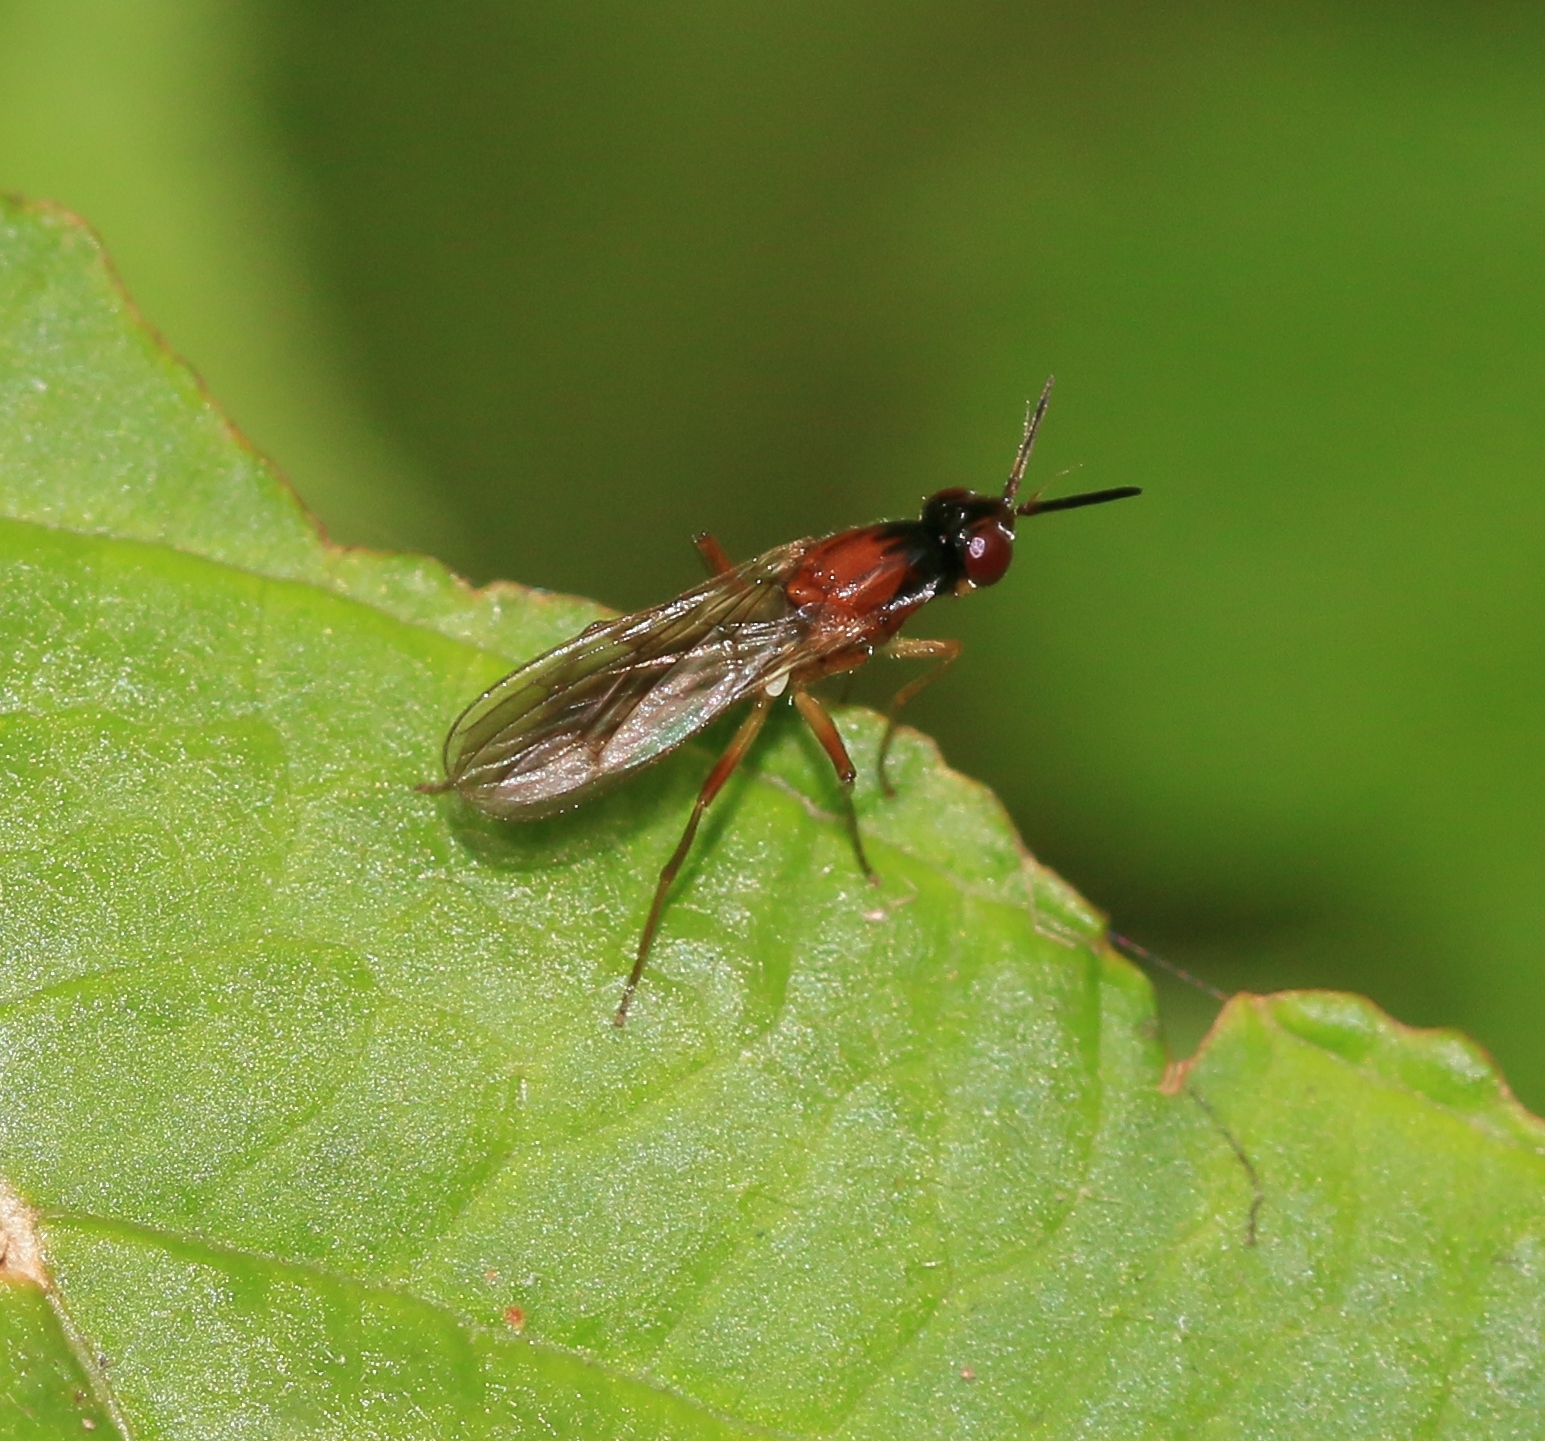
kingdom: Animalia
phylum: Arthropoda
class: Insecta
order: Diptera
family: Psilidae
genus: Loxocera
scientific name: Loxocera albiseta
